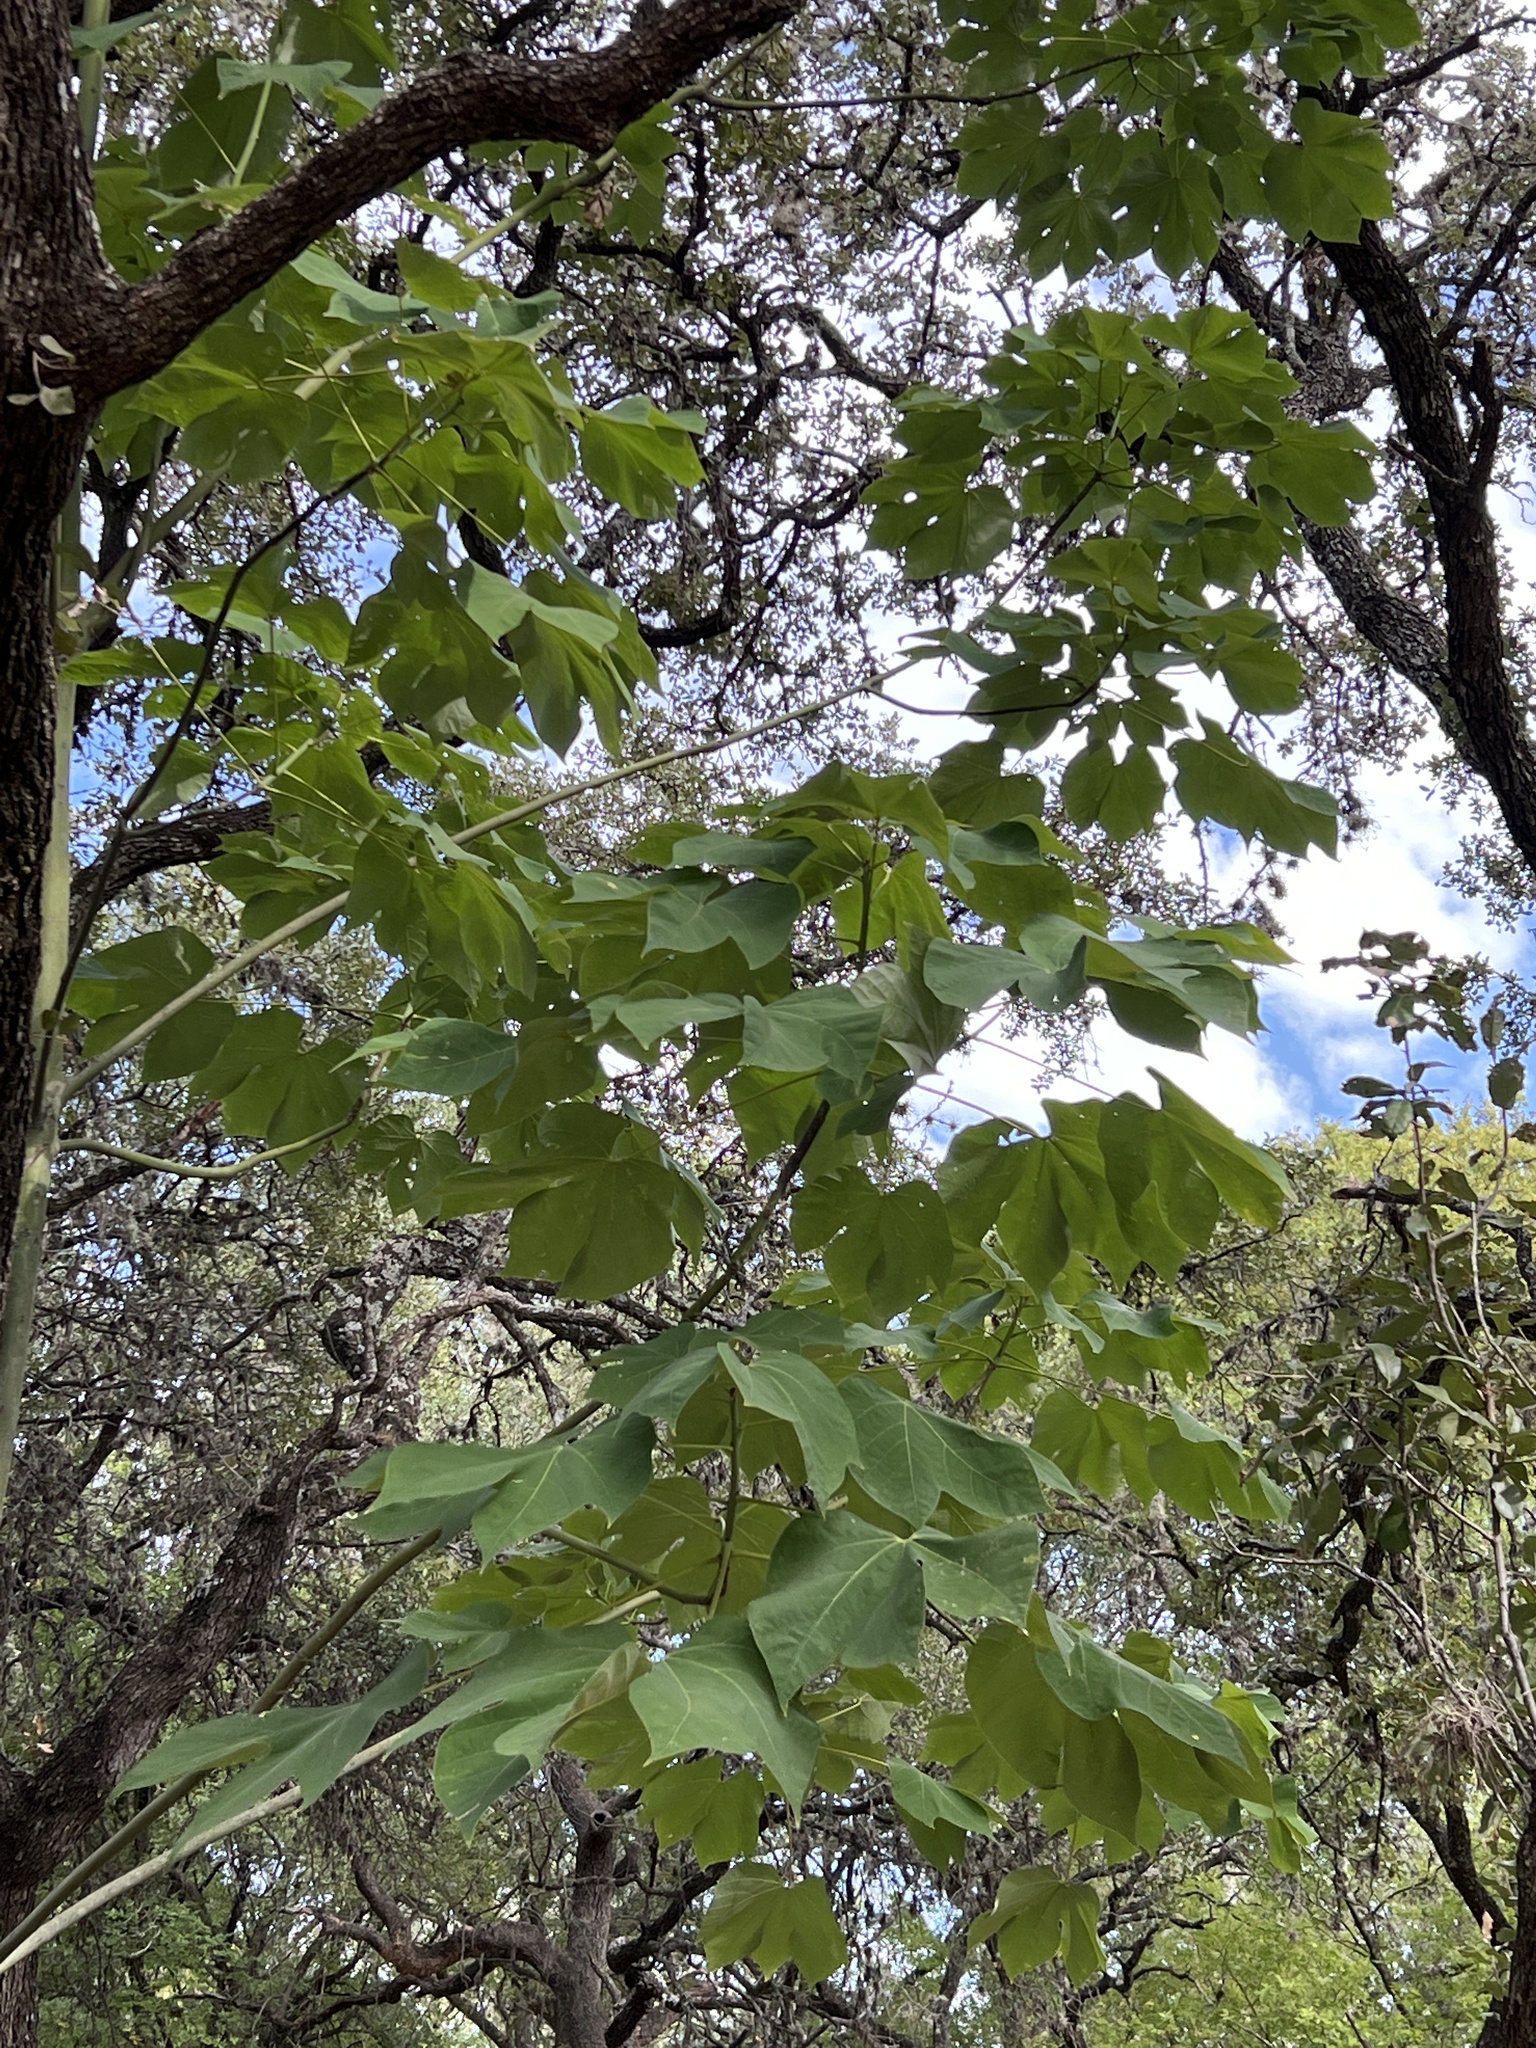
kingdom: Plantae
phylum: Tracheophyta
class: Magnoliopsida
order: Malvales
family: Malvaceae
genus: Firmiana
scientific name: Firmiana simplex
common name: Chinese parasoltree
